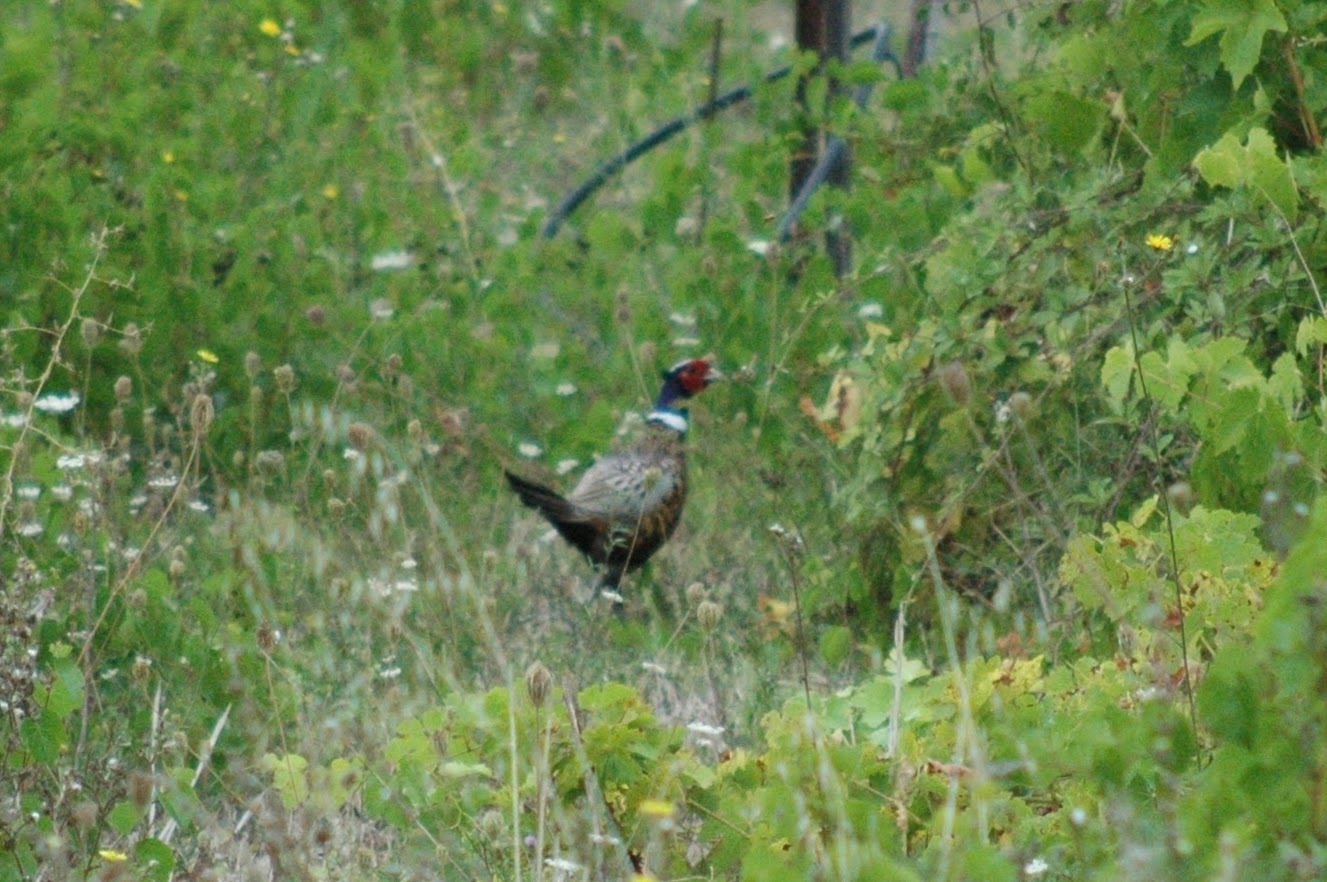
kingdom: Animalia
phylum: Chordata
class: Aves
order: Galliformes
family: Phasianidae
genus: Phasianus
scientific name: Phasianus colchicus
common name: Common pheasant
